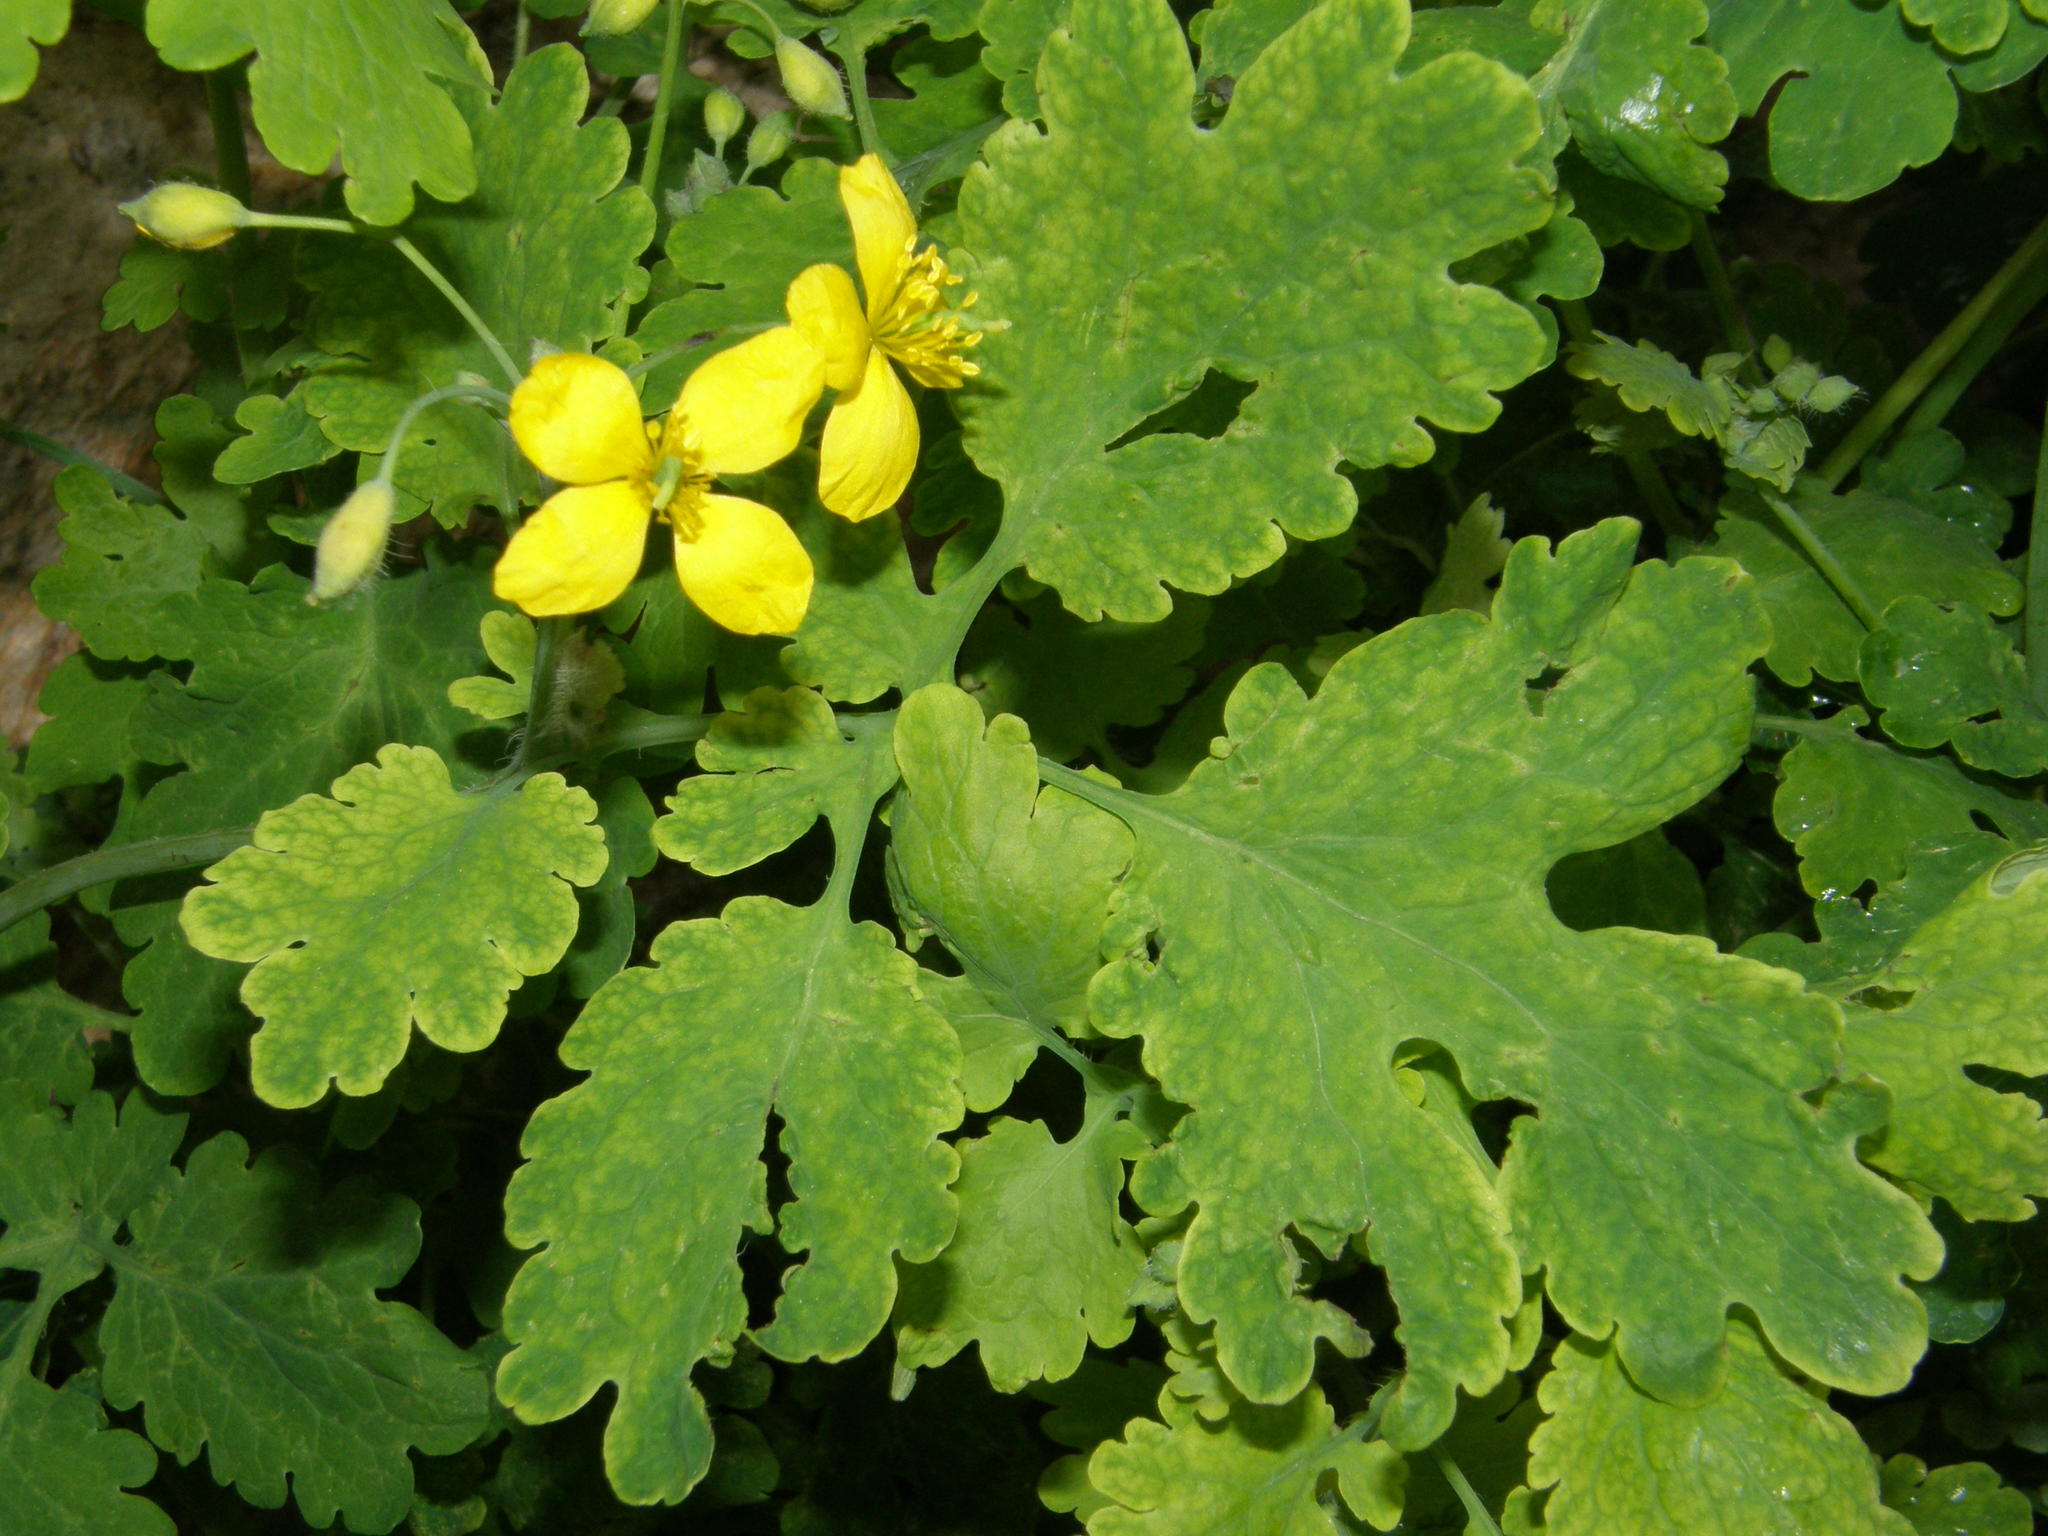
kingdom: Plantae
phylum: Tracheophyta
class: Magnoliopsida
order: Ranunculales
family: Papaveraceae
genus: Chelidonium
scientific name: Chelidonium majus
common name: Greater celandine
